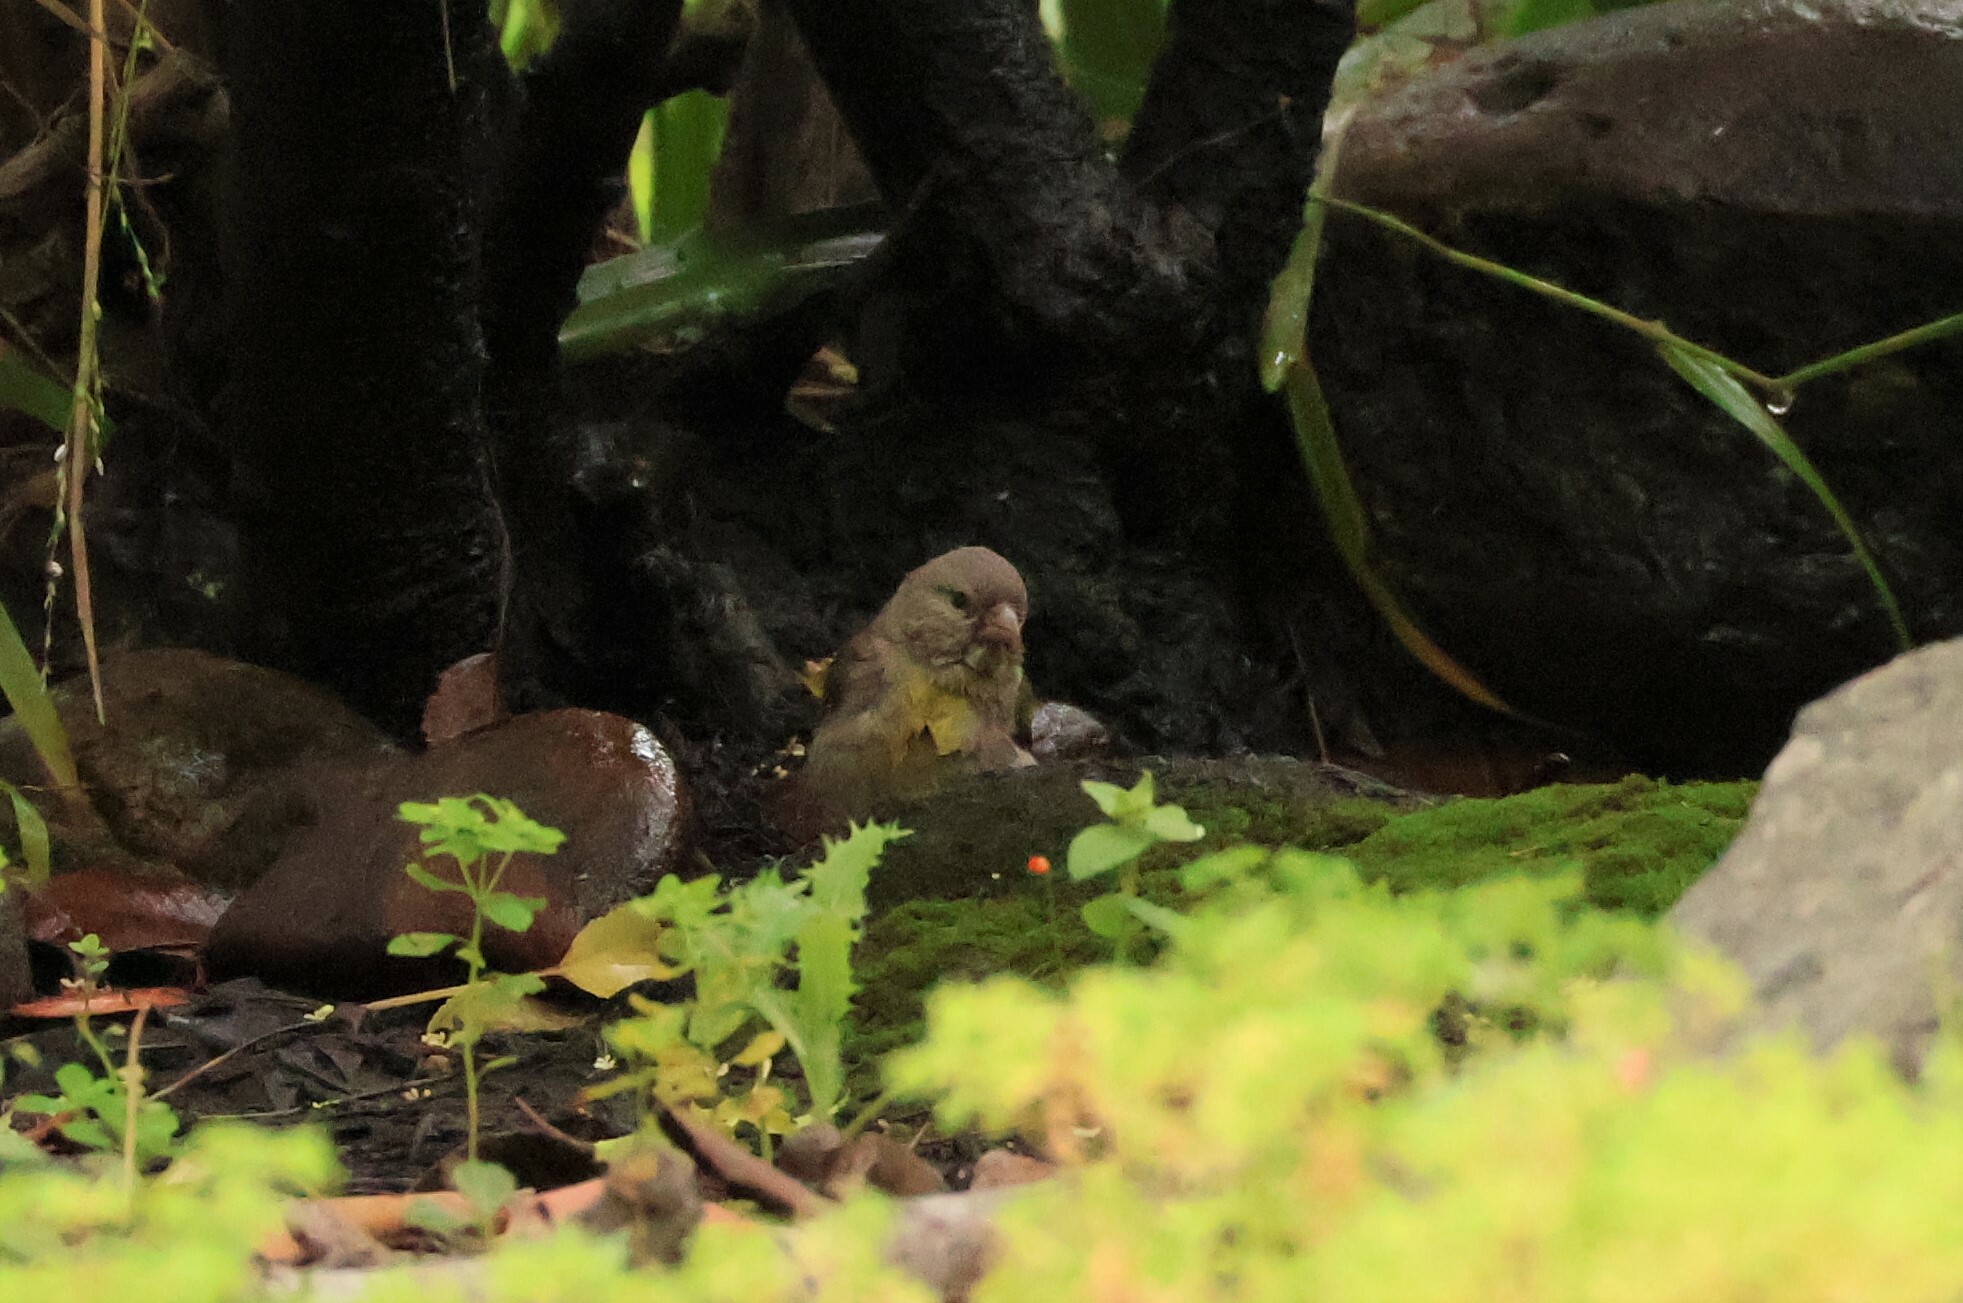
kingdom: Animalia
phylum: Chordata
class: Aves
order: Passeriformes
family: Fringillidae
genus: Spinus
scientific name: Spinus lawrencei
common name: Lawrence's goldfinch
